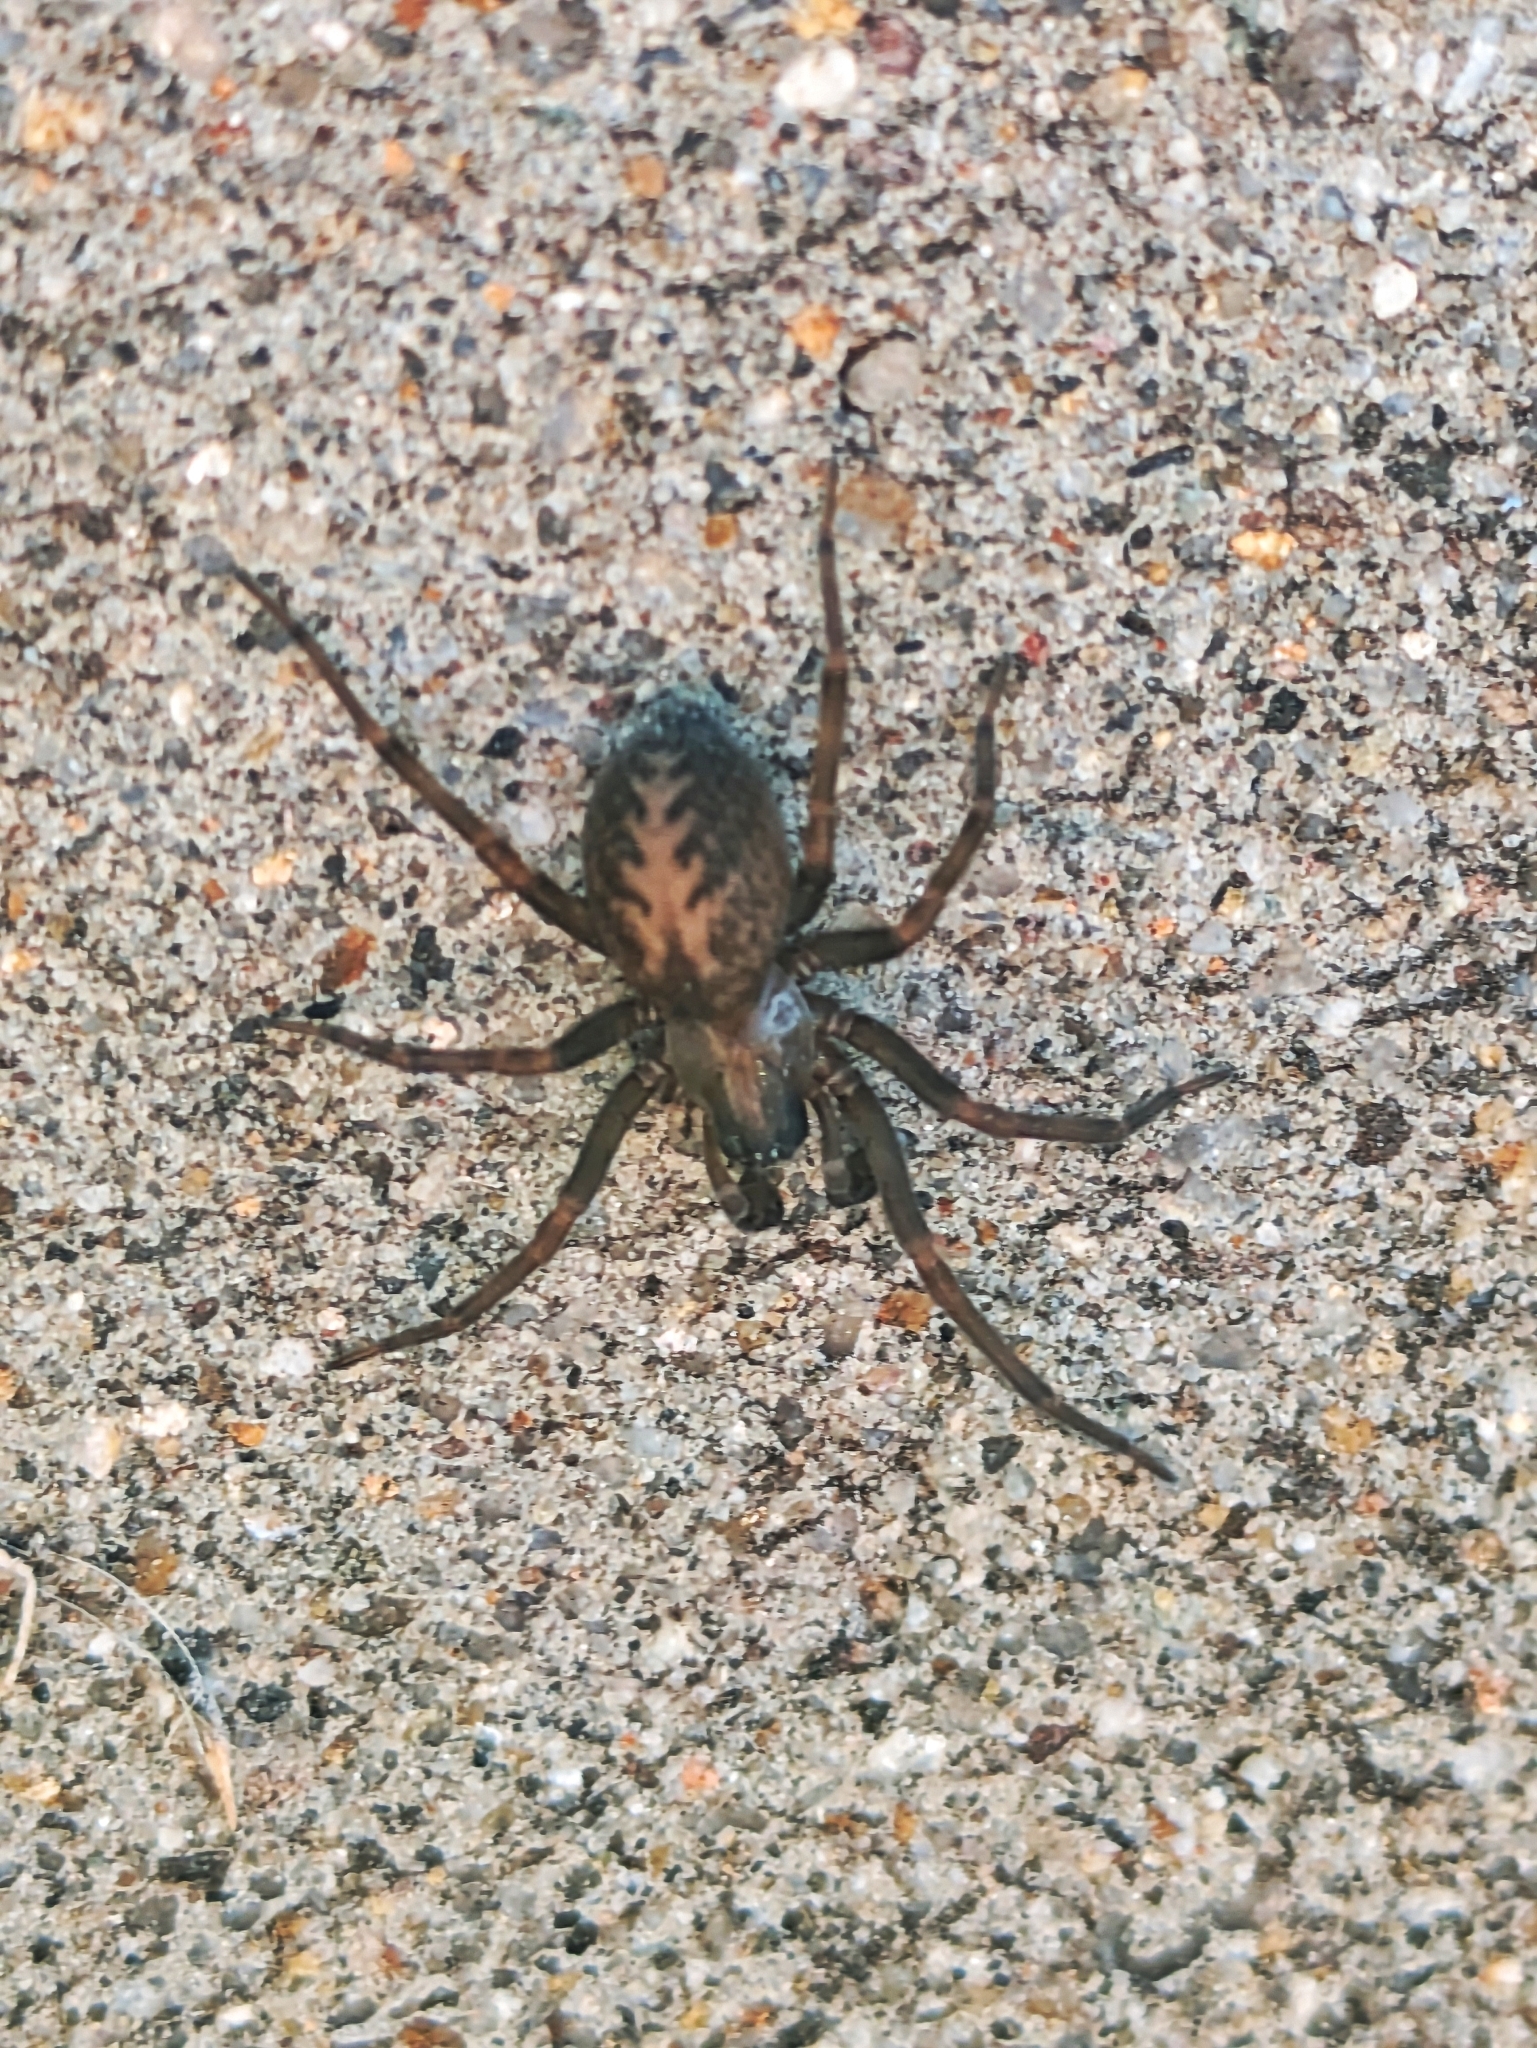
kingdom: Animalia
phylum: Arthropoda
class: Arachnida
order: Araneae
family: Desidae
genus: Metaltella
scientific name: Metaltella simoni
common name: Cribellate spider
